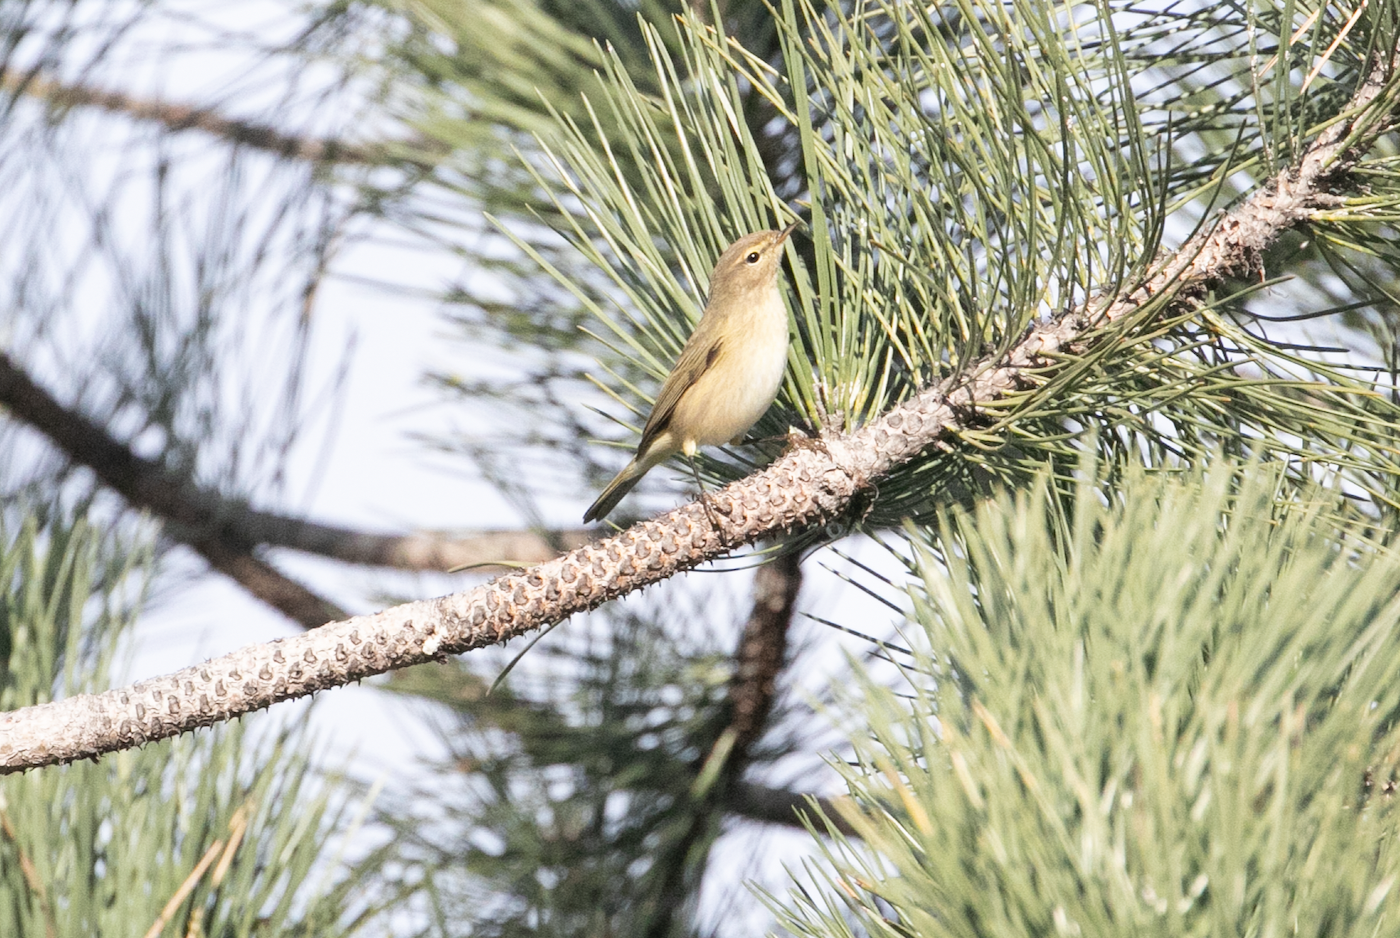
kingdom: Animalia
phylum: Chordata
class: Aves
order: Passeriformes
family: Phylloscopidae
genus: Phylloscopus
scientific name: Phylloscopus collybita
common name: Common chiffchaff
